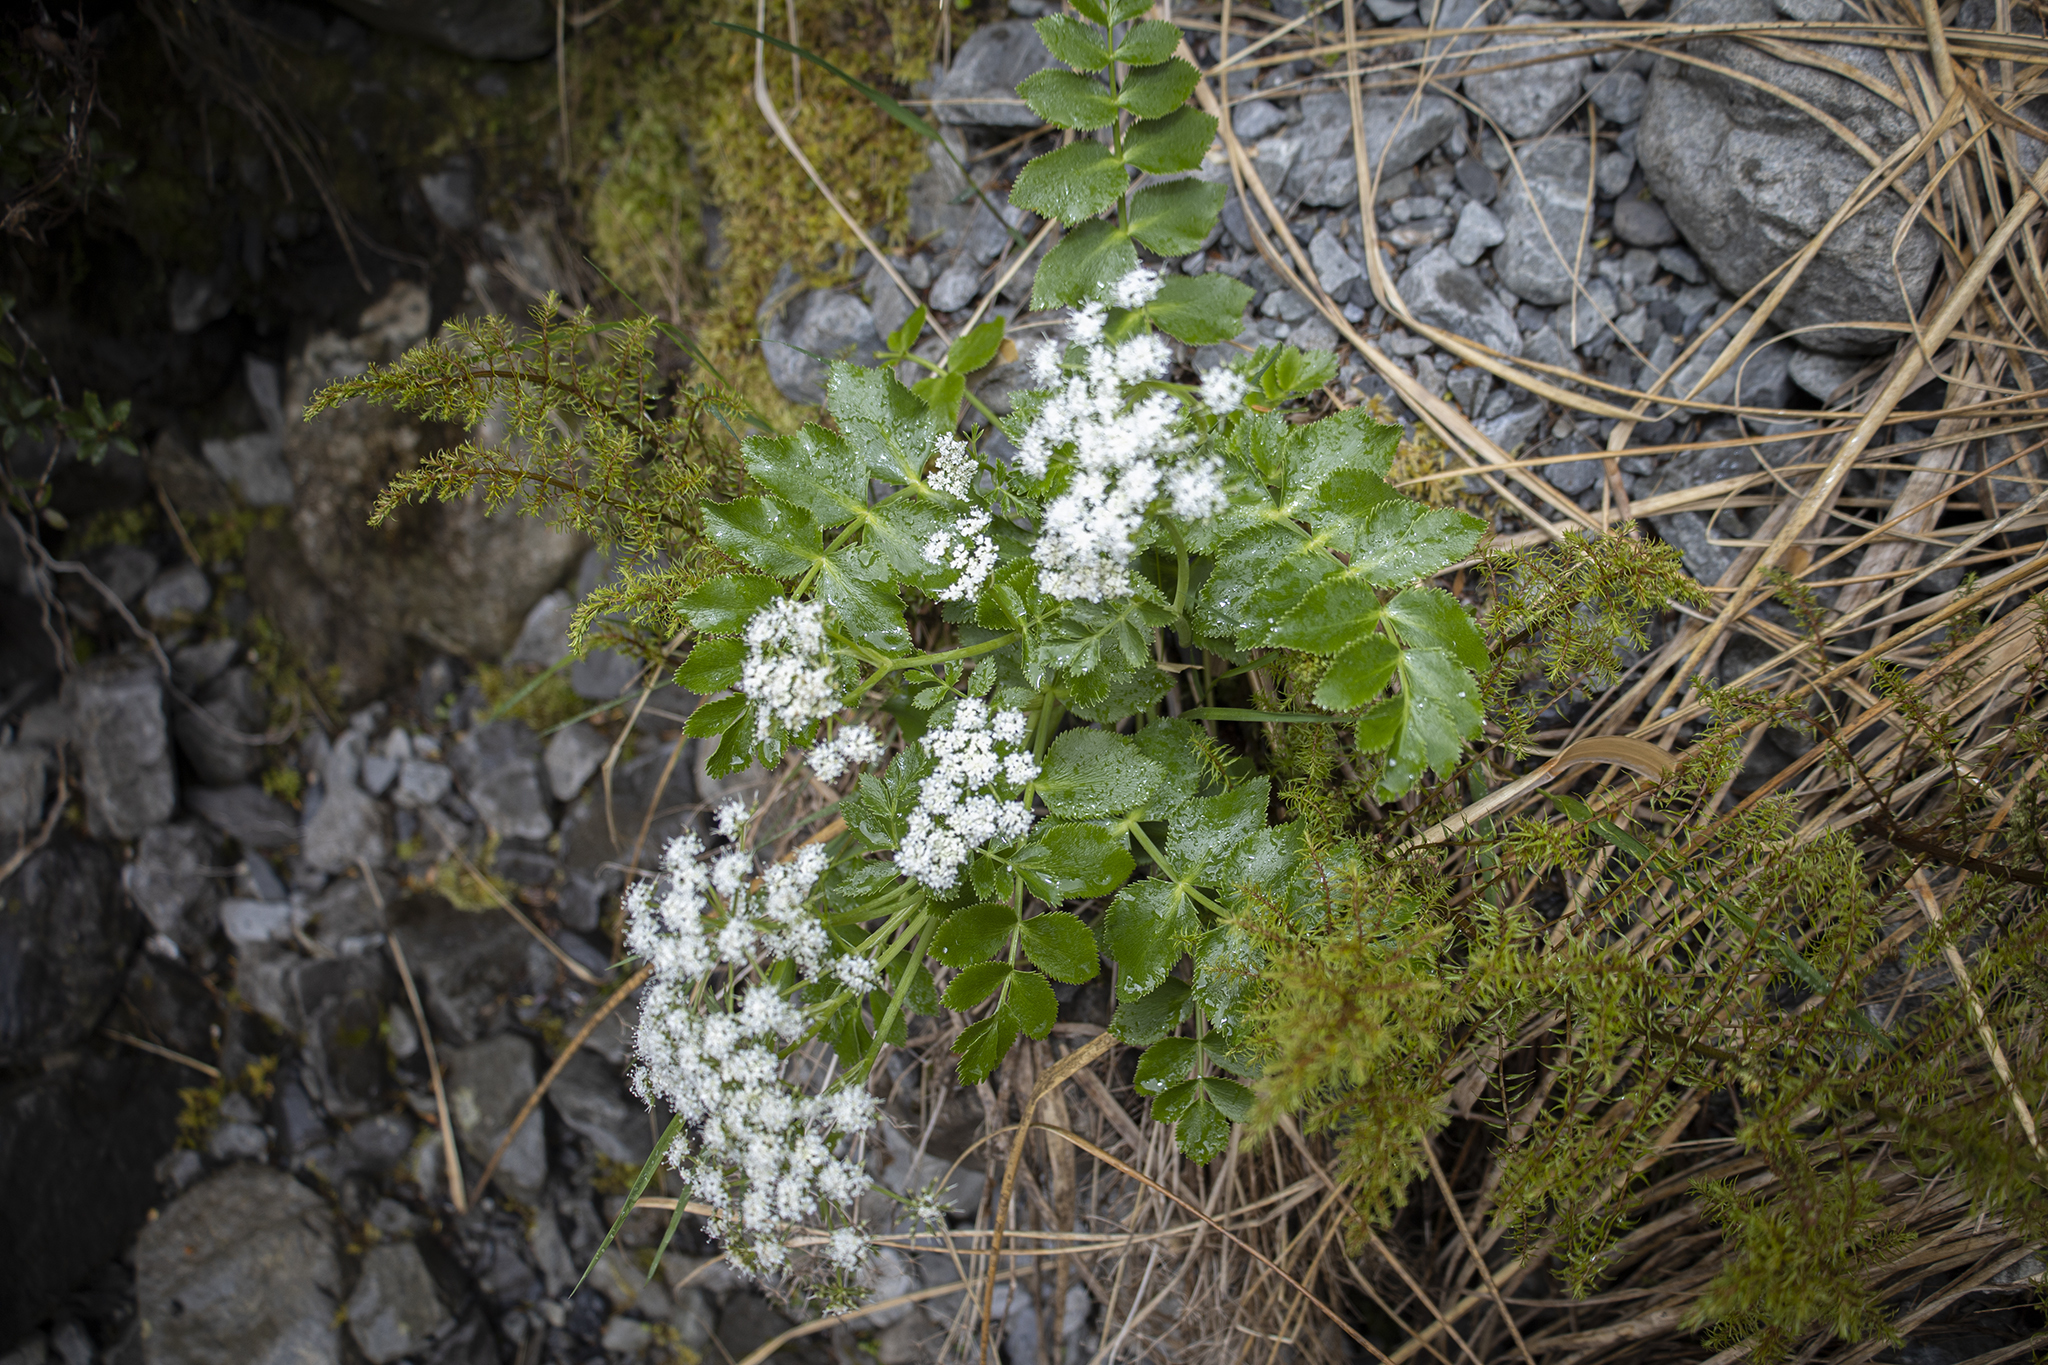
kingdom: Plantae
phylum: Tracheophyta
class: Magnoliopsida
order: Apiales
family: Apiaceae
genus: Gingidia
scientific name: Gingidia montana
